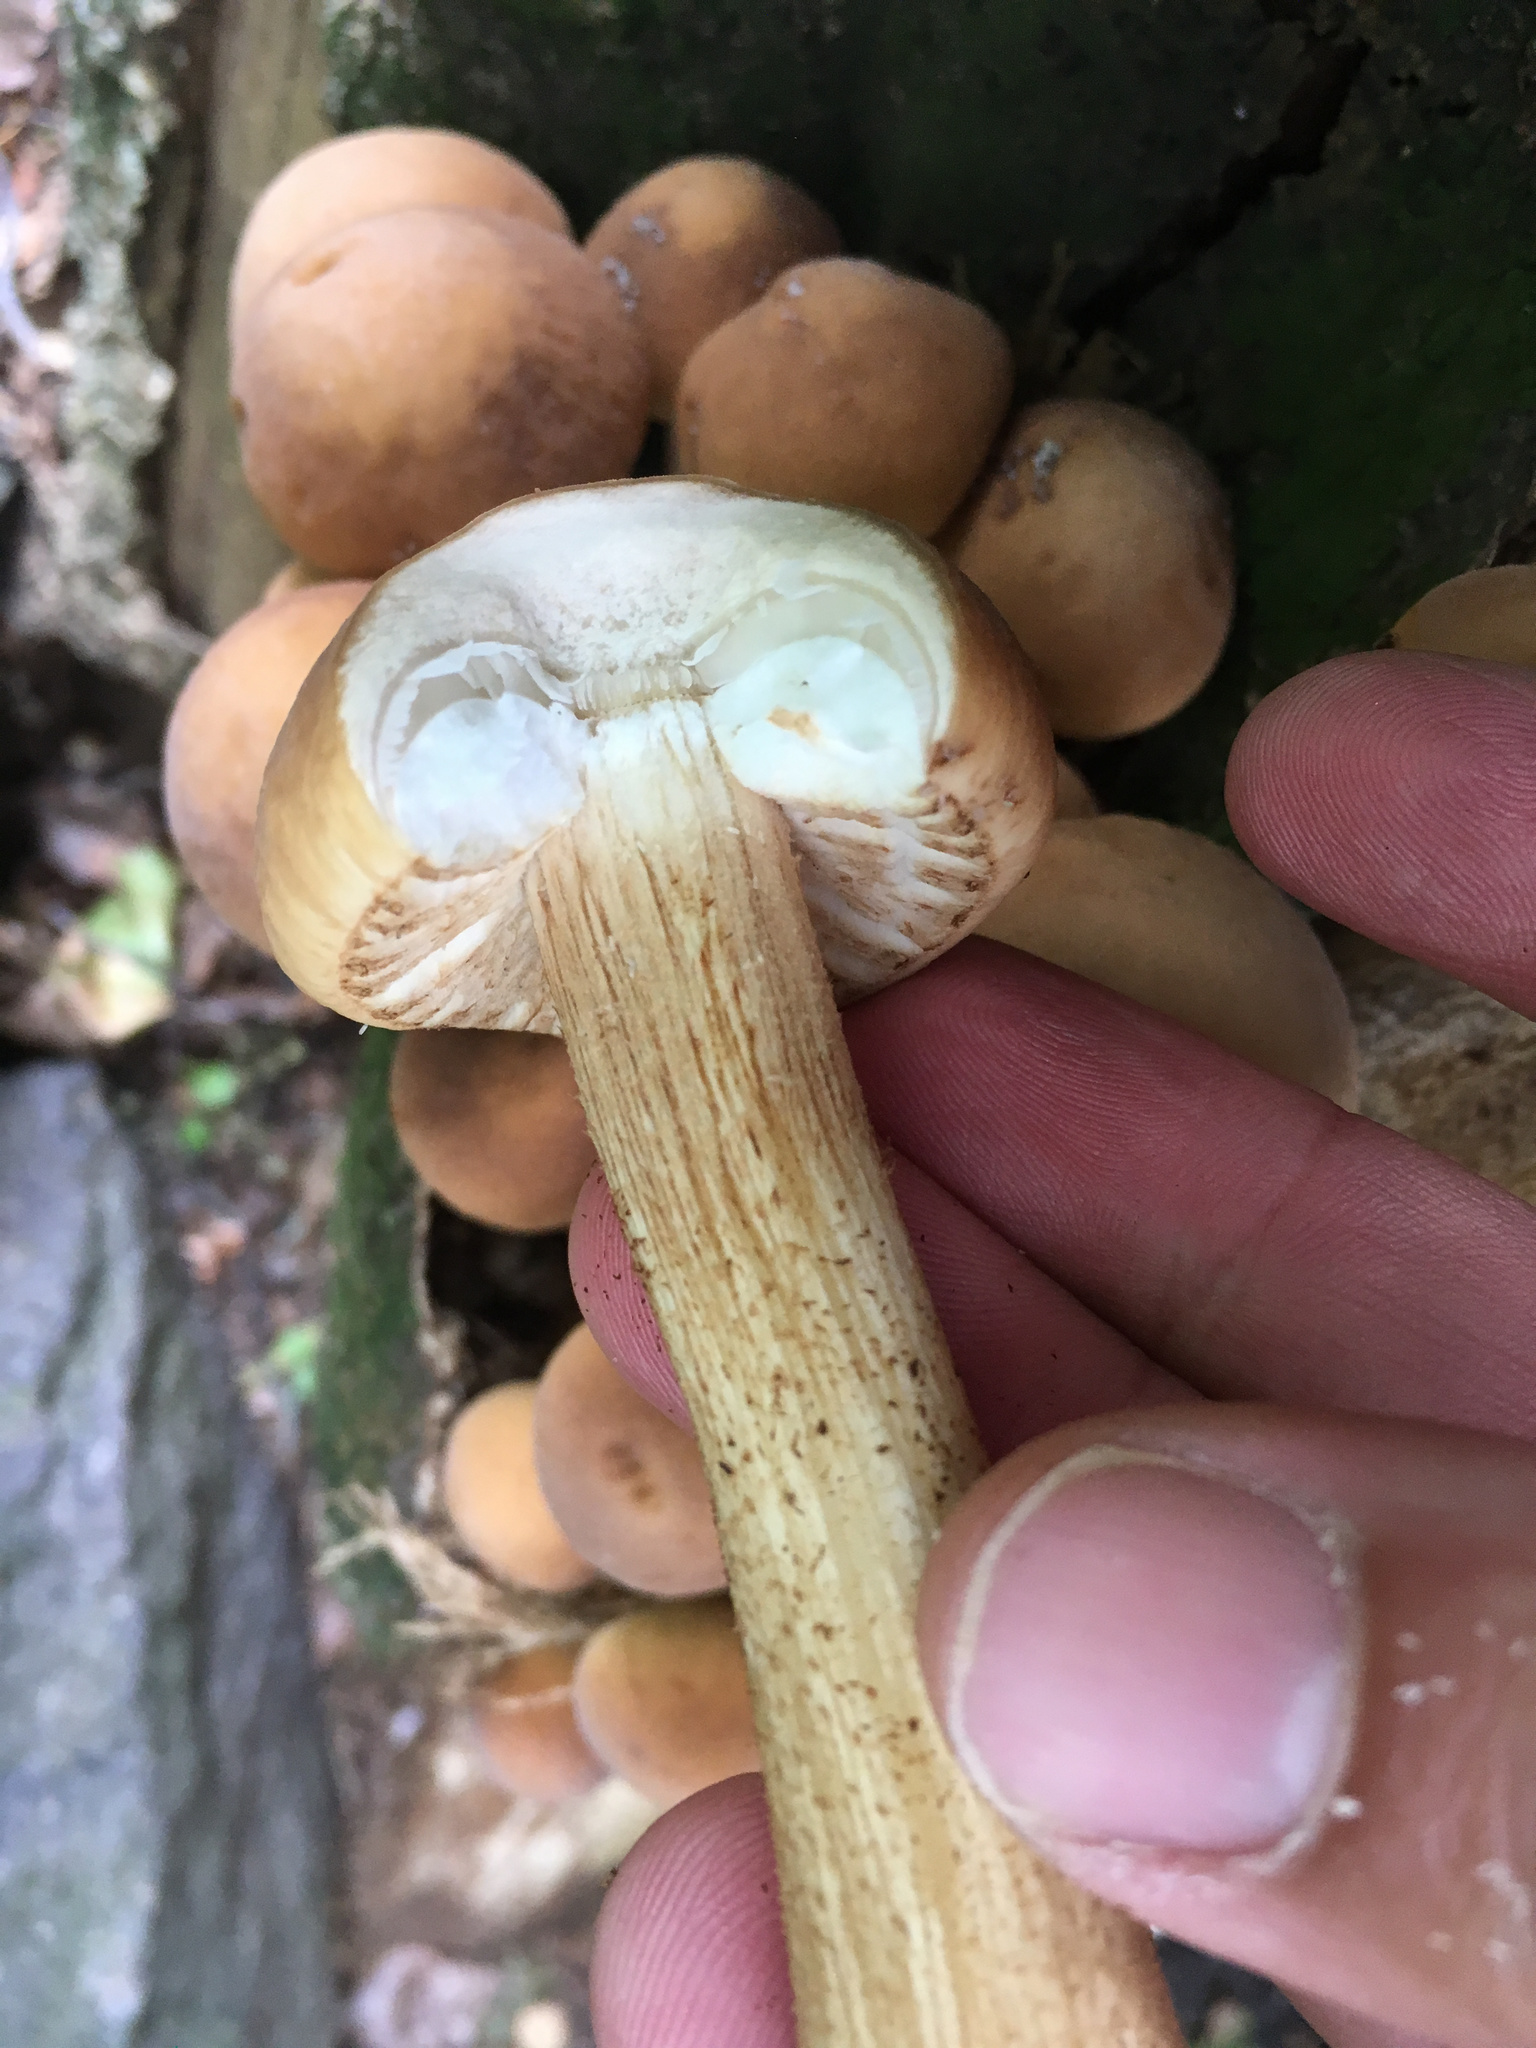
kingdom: Fungi
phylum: Basidiomycota
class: Agaricomycetes
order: Agaricales
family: Tubariaceae
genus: Cyclocybe
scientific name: Cyclocybe parasitica
